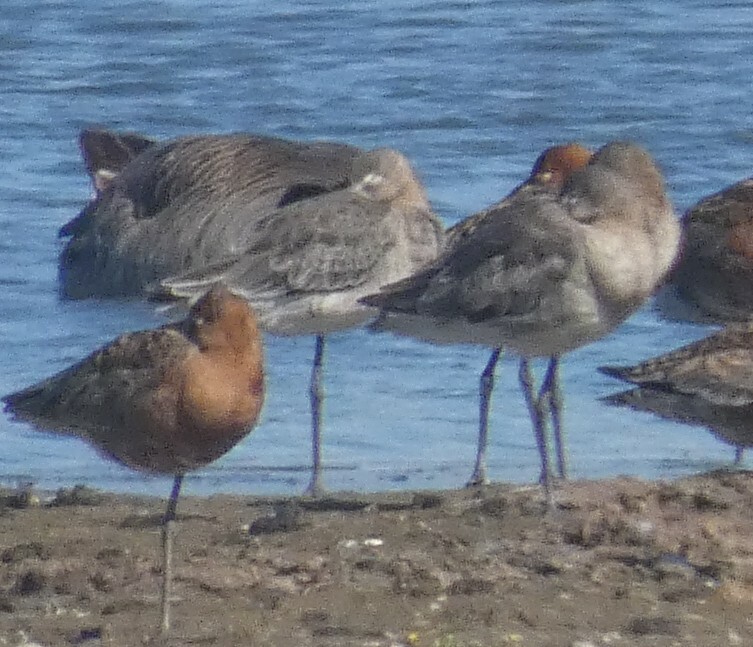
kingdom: Animalia
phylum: Chordata
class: Aves
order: Charadriiformes
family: Scolopacidae
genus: Limosa
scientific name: Limosa limosa
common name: Black-tailed godwit
